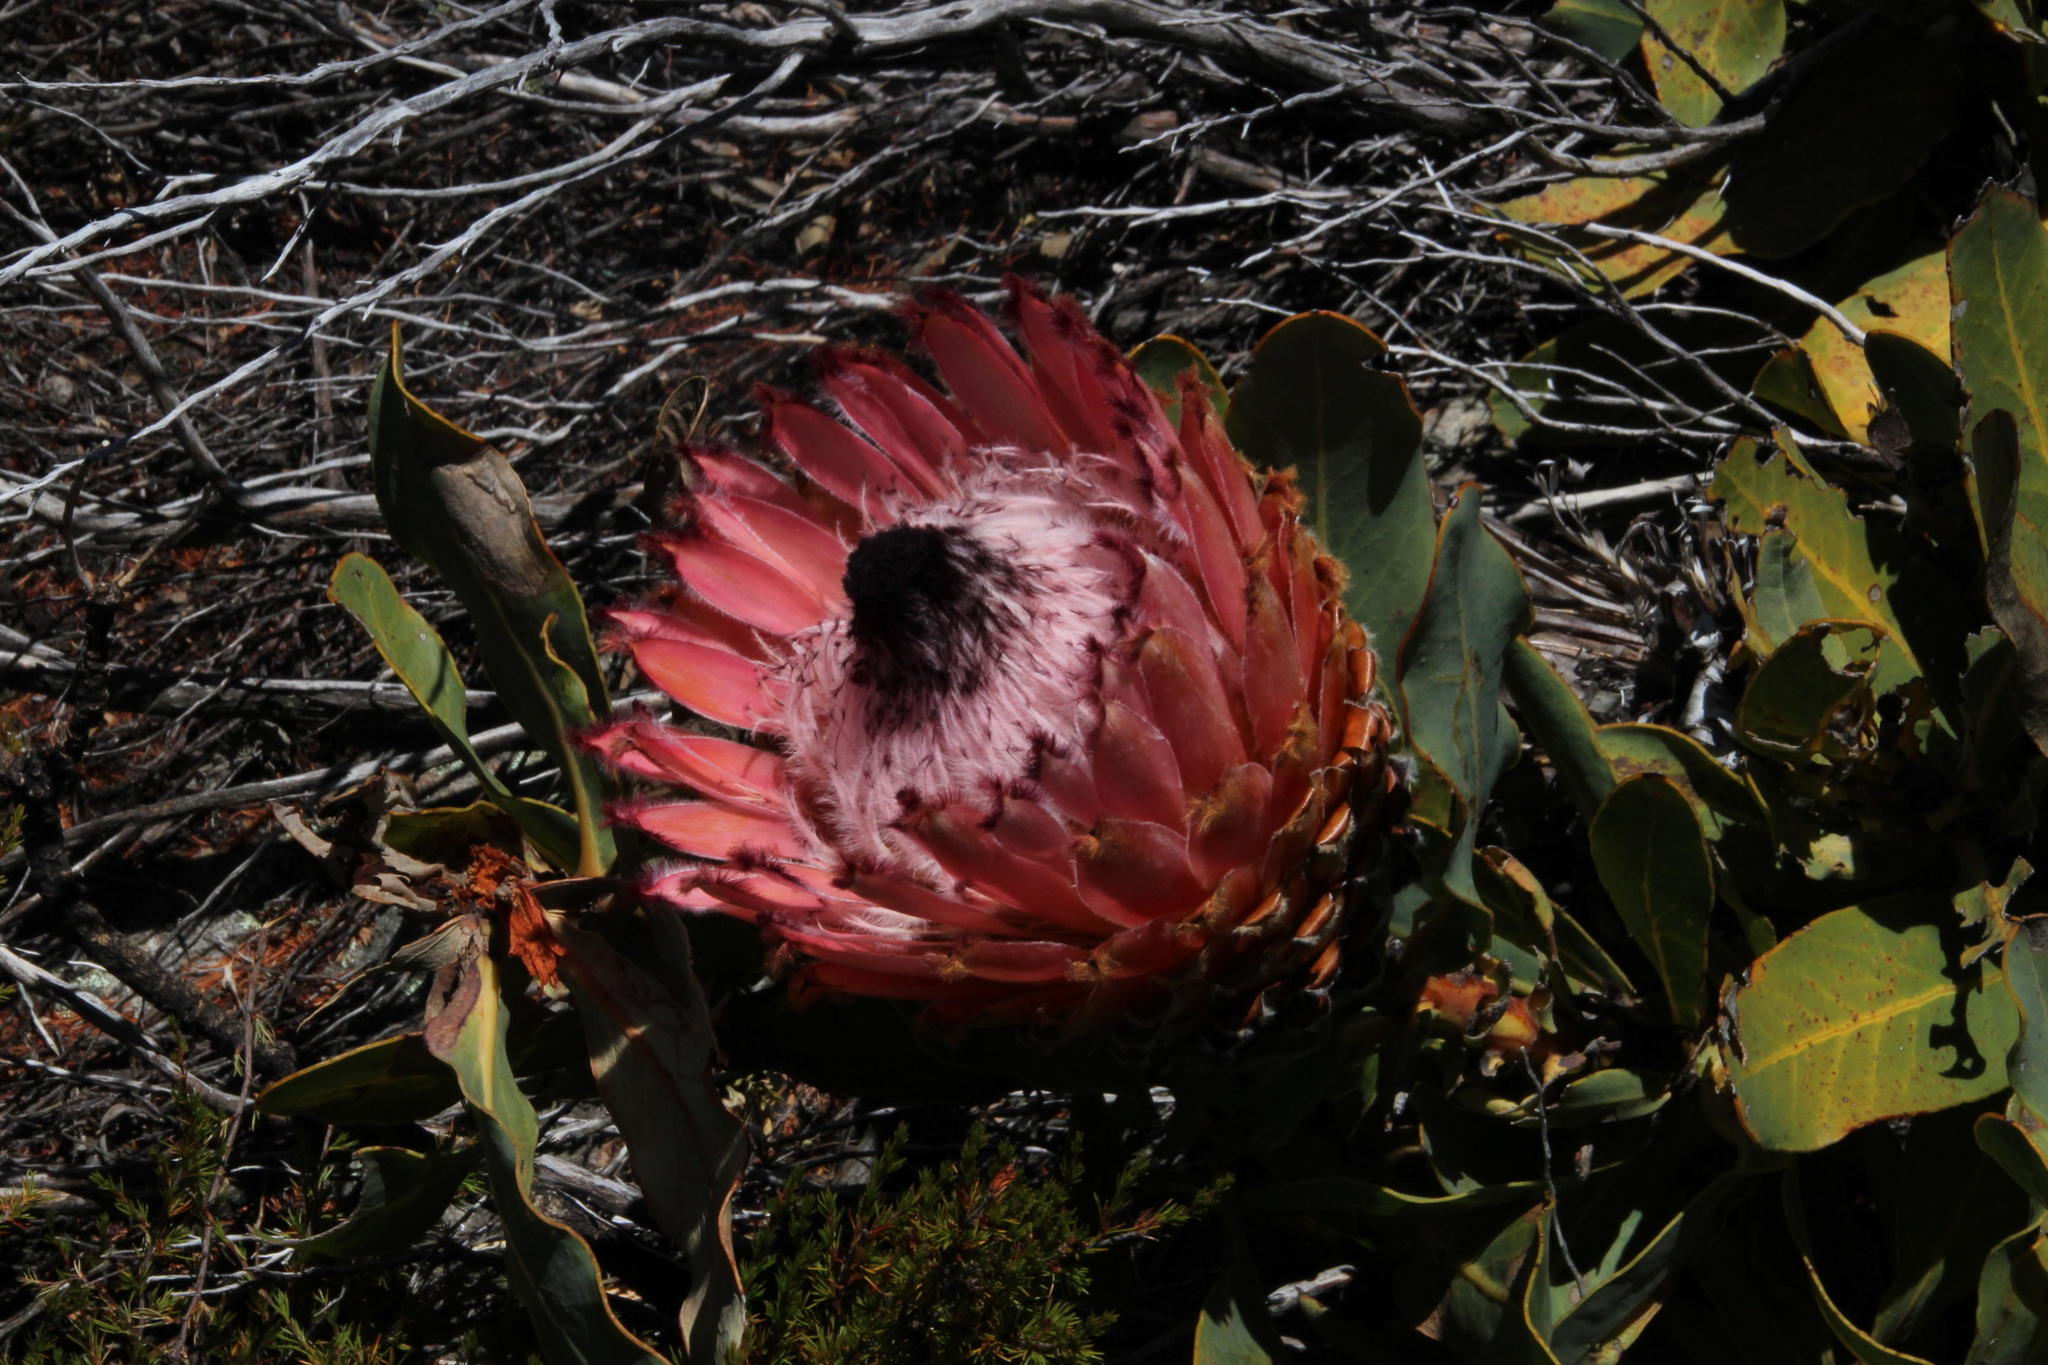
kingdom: Plantae
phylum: Tracheophyta
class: Magnoliopsida
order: Proteales
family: Proteaceae
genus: Protea
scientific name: Protea magnifica
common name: Bearded sugarbush
